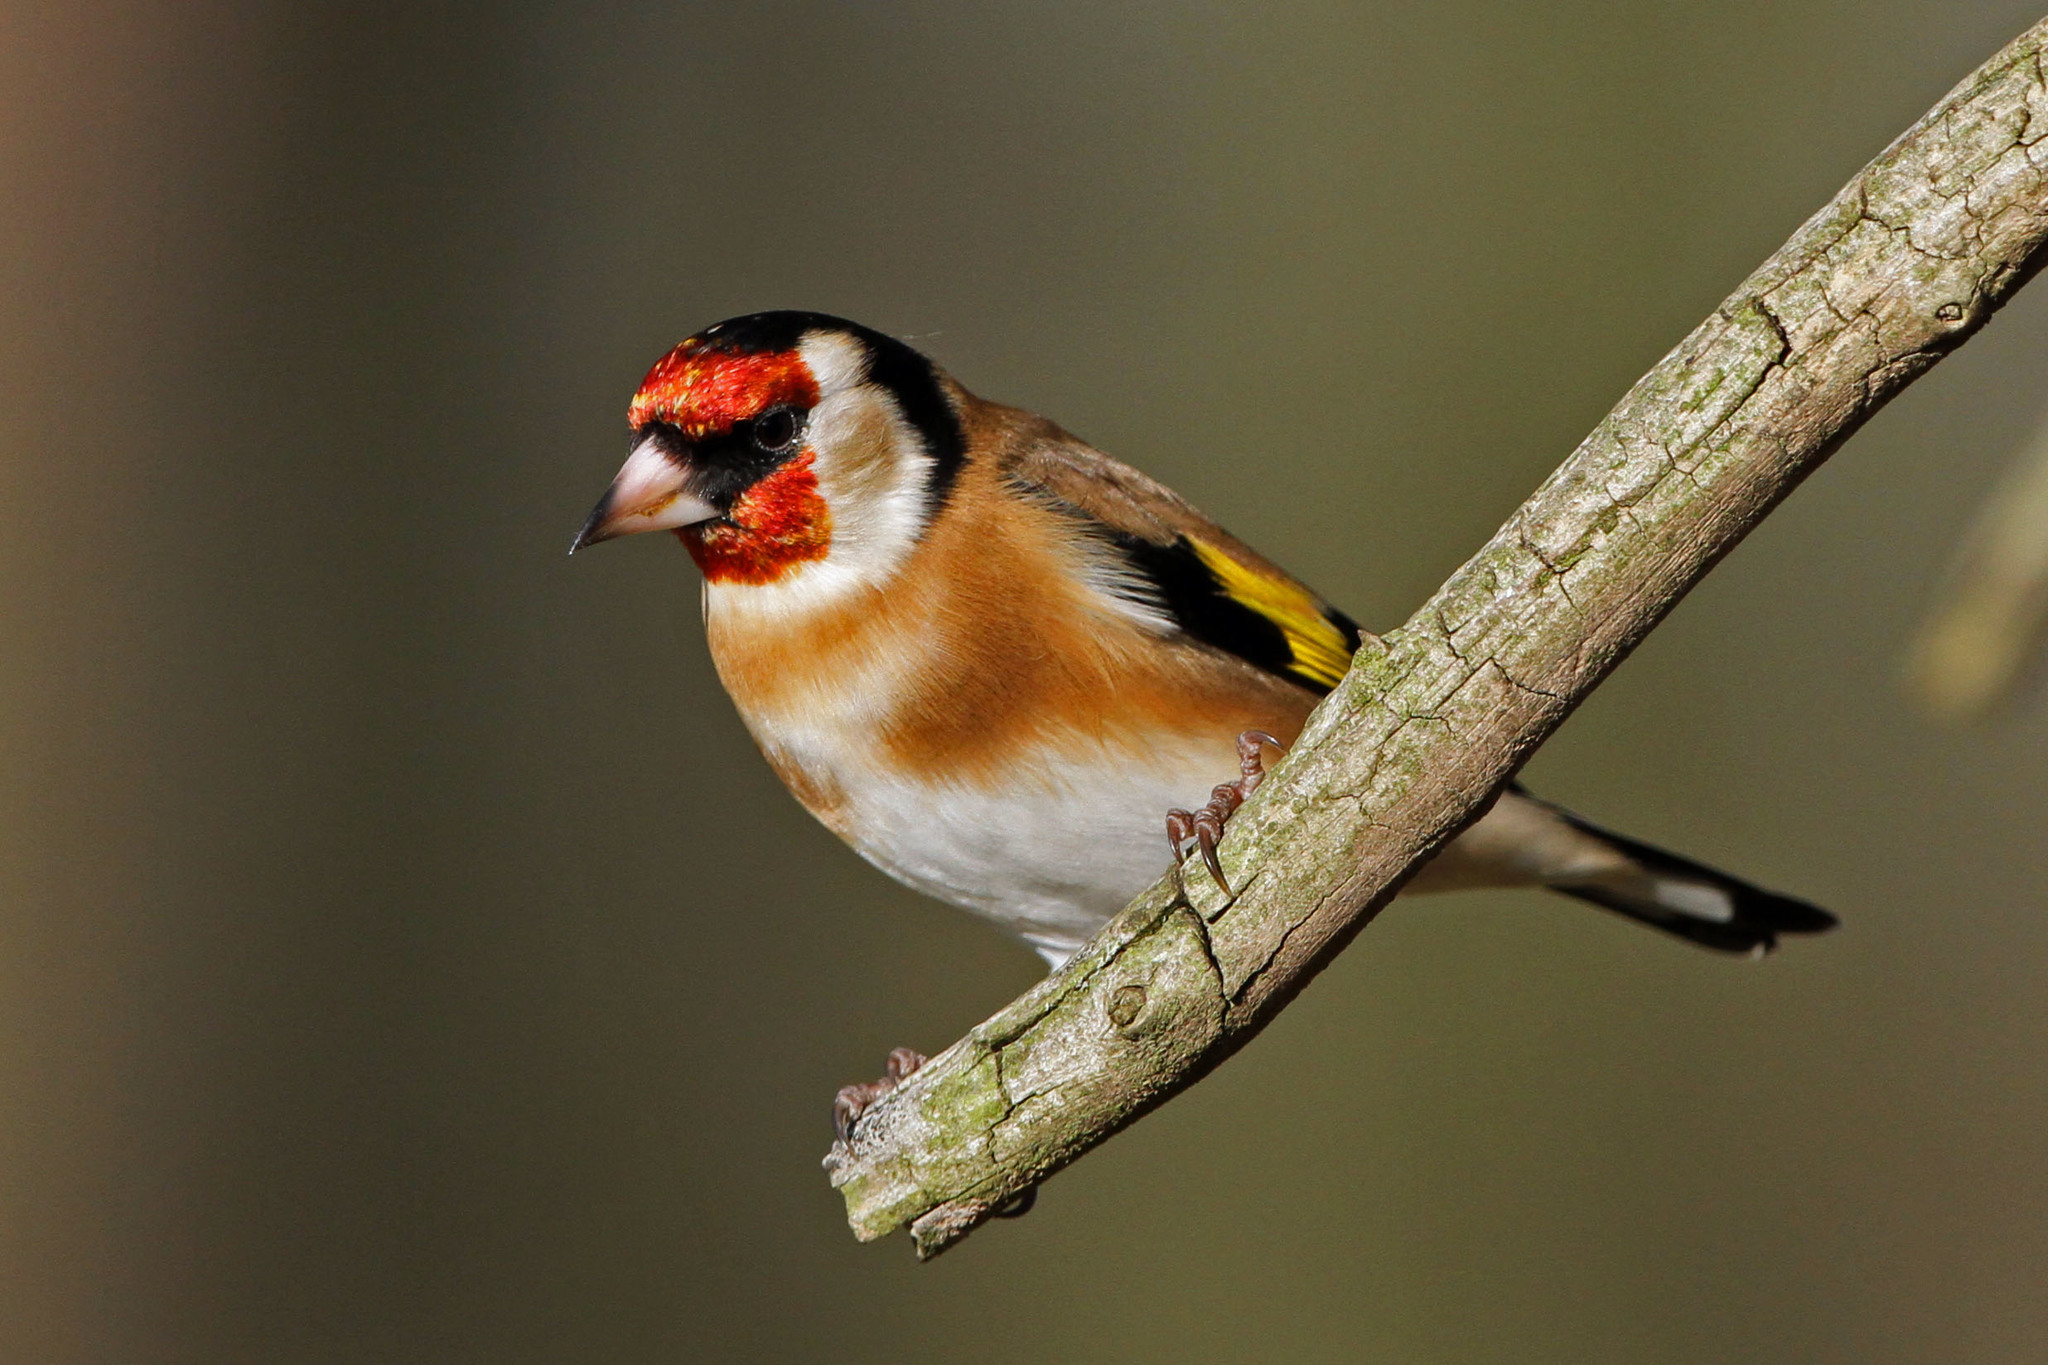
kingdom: Animalia
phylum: Chordata
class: Aves
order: Passeriformes
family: Fringillidae
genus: Carduelis
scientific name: Carduelis carduelis
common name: European goldfinch
